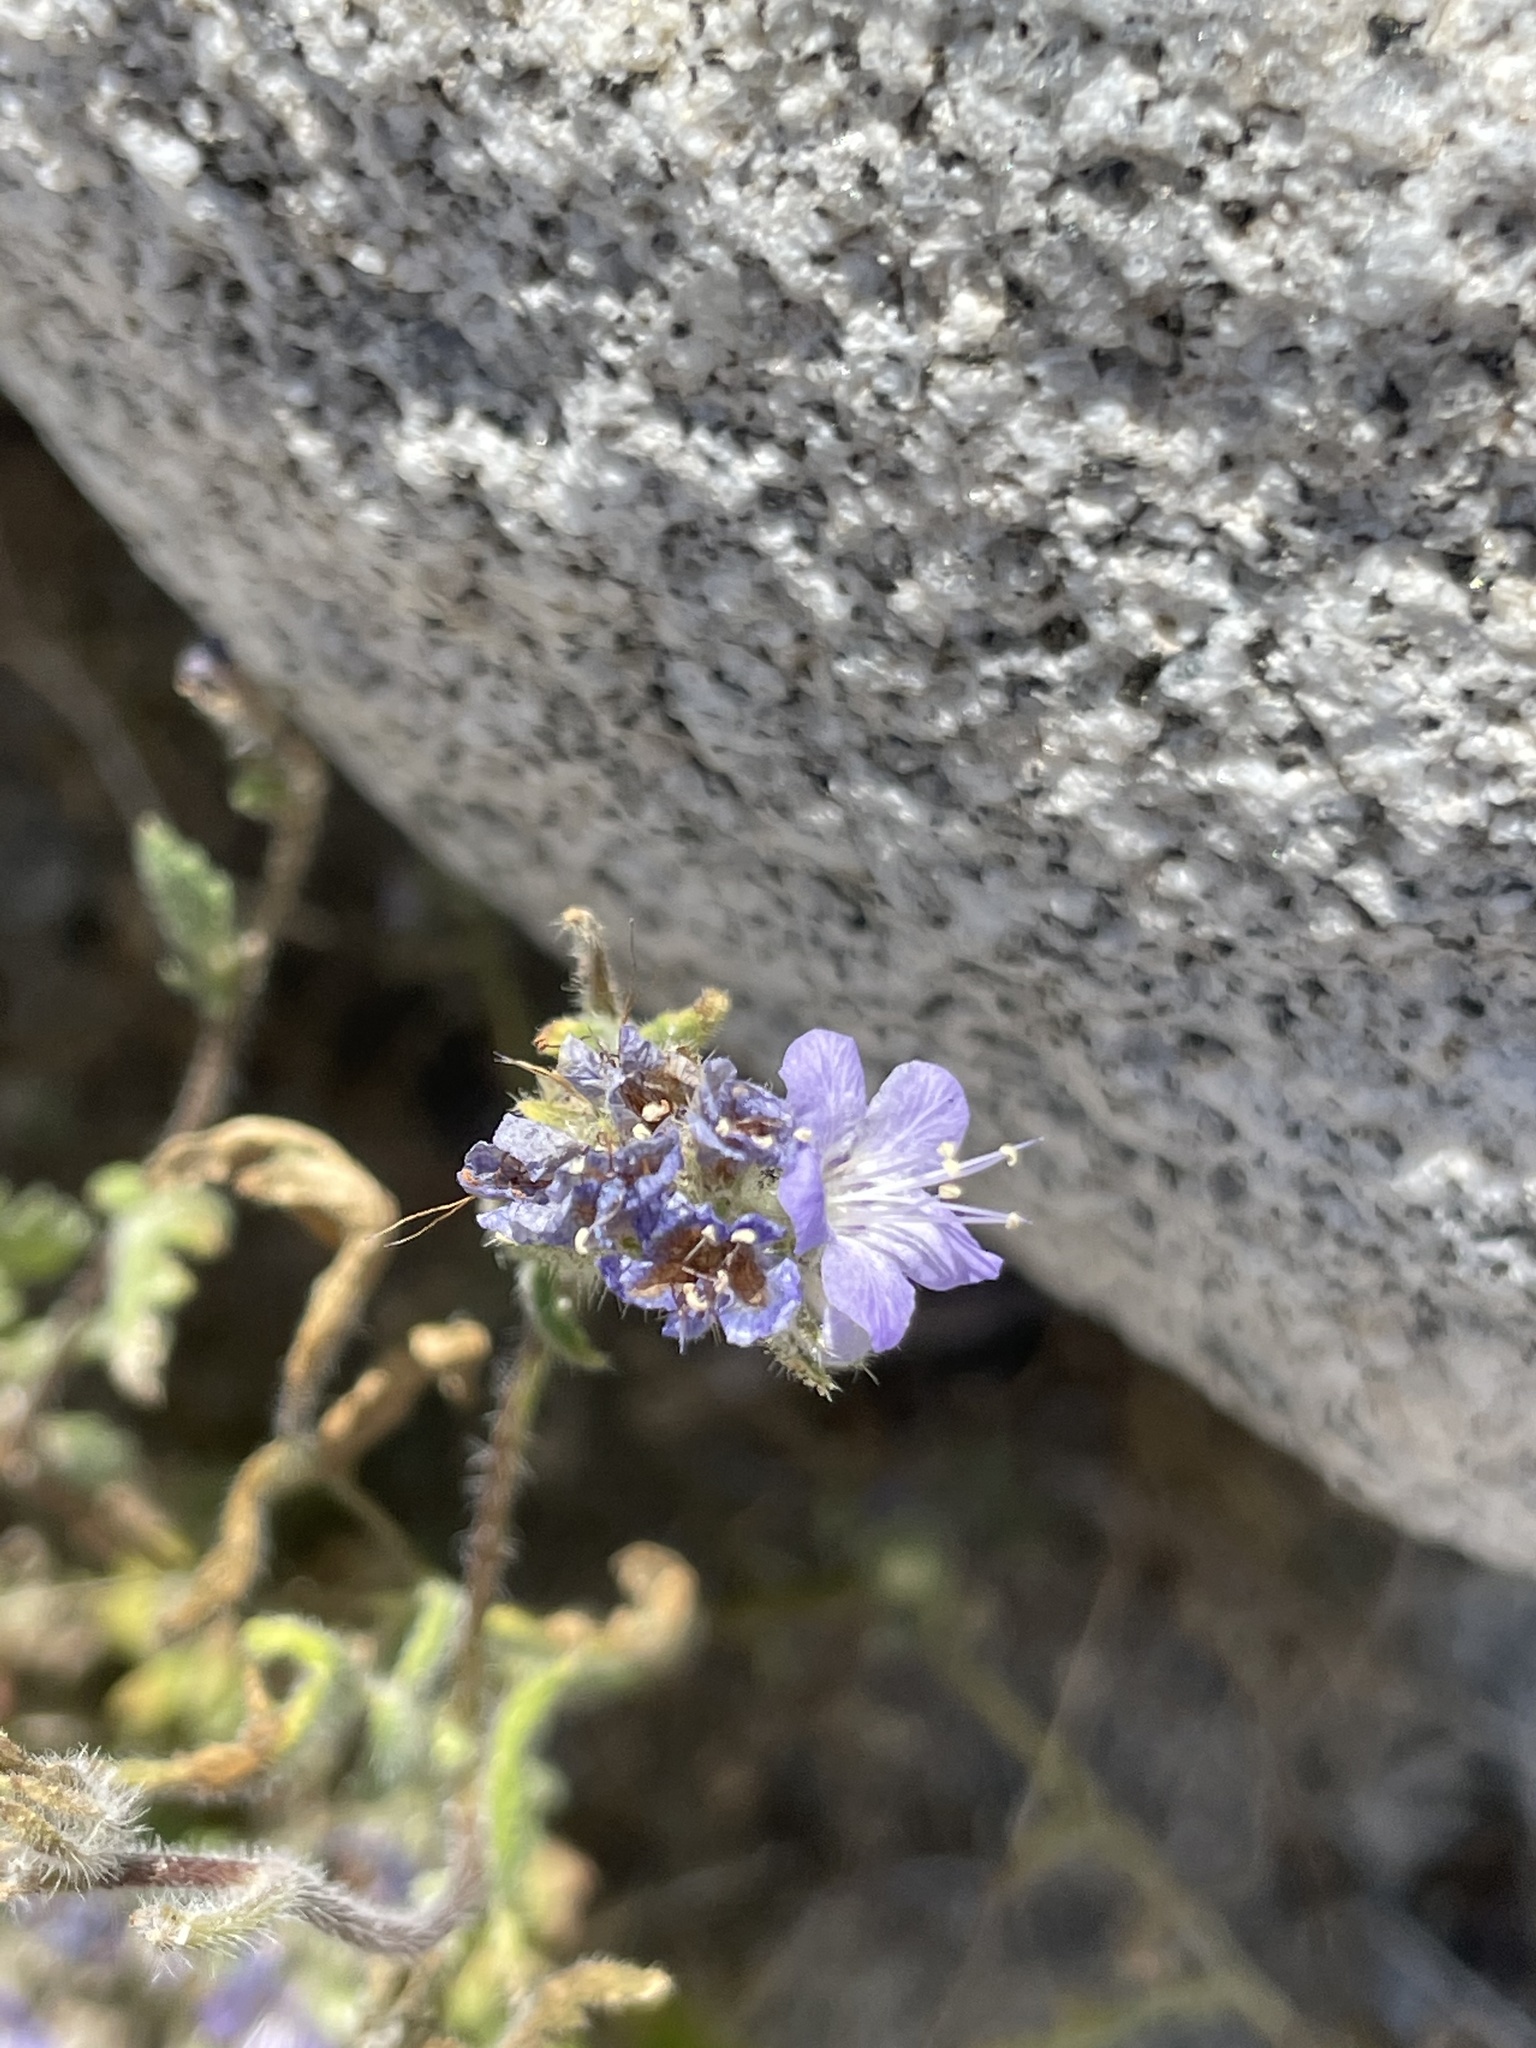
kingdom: Plantae
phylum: Tracheophyta
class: Magnoliopsida
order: Boraginales
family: Hydrophyllaceae
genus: Phacelia
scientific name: Phacelia distans
